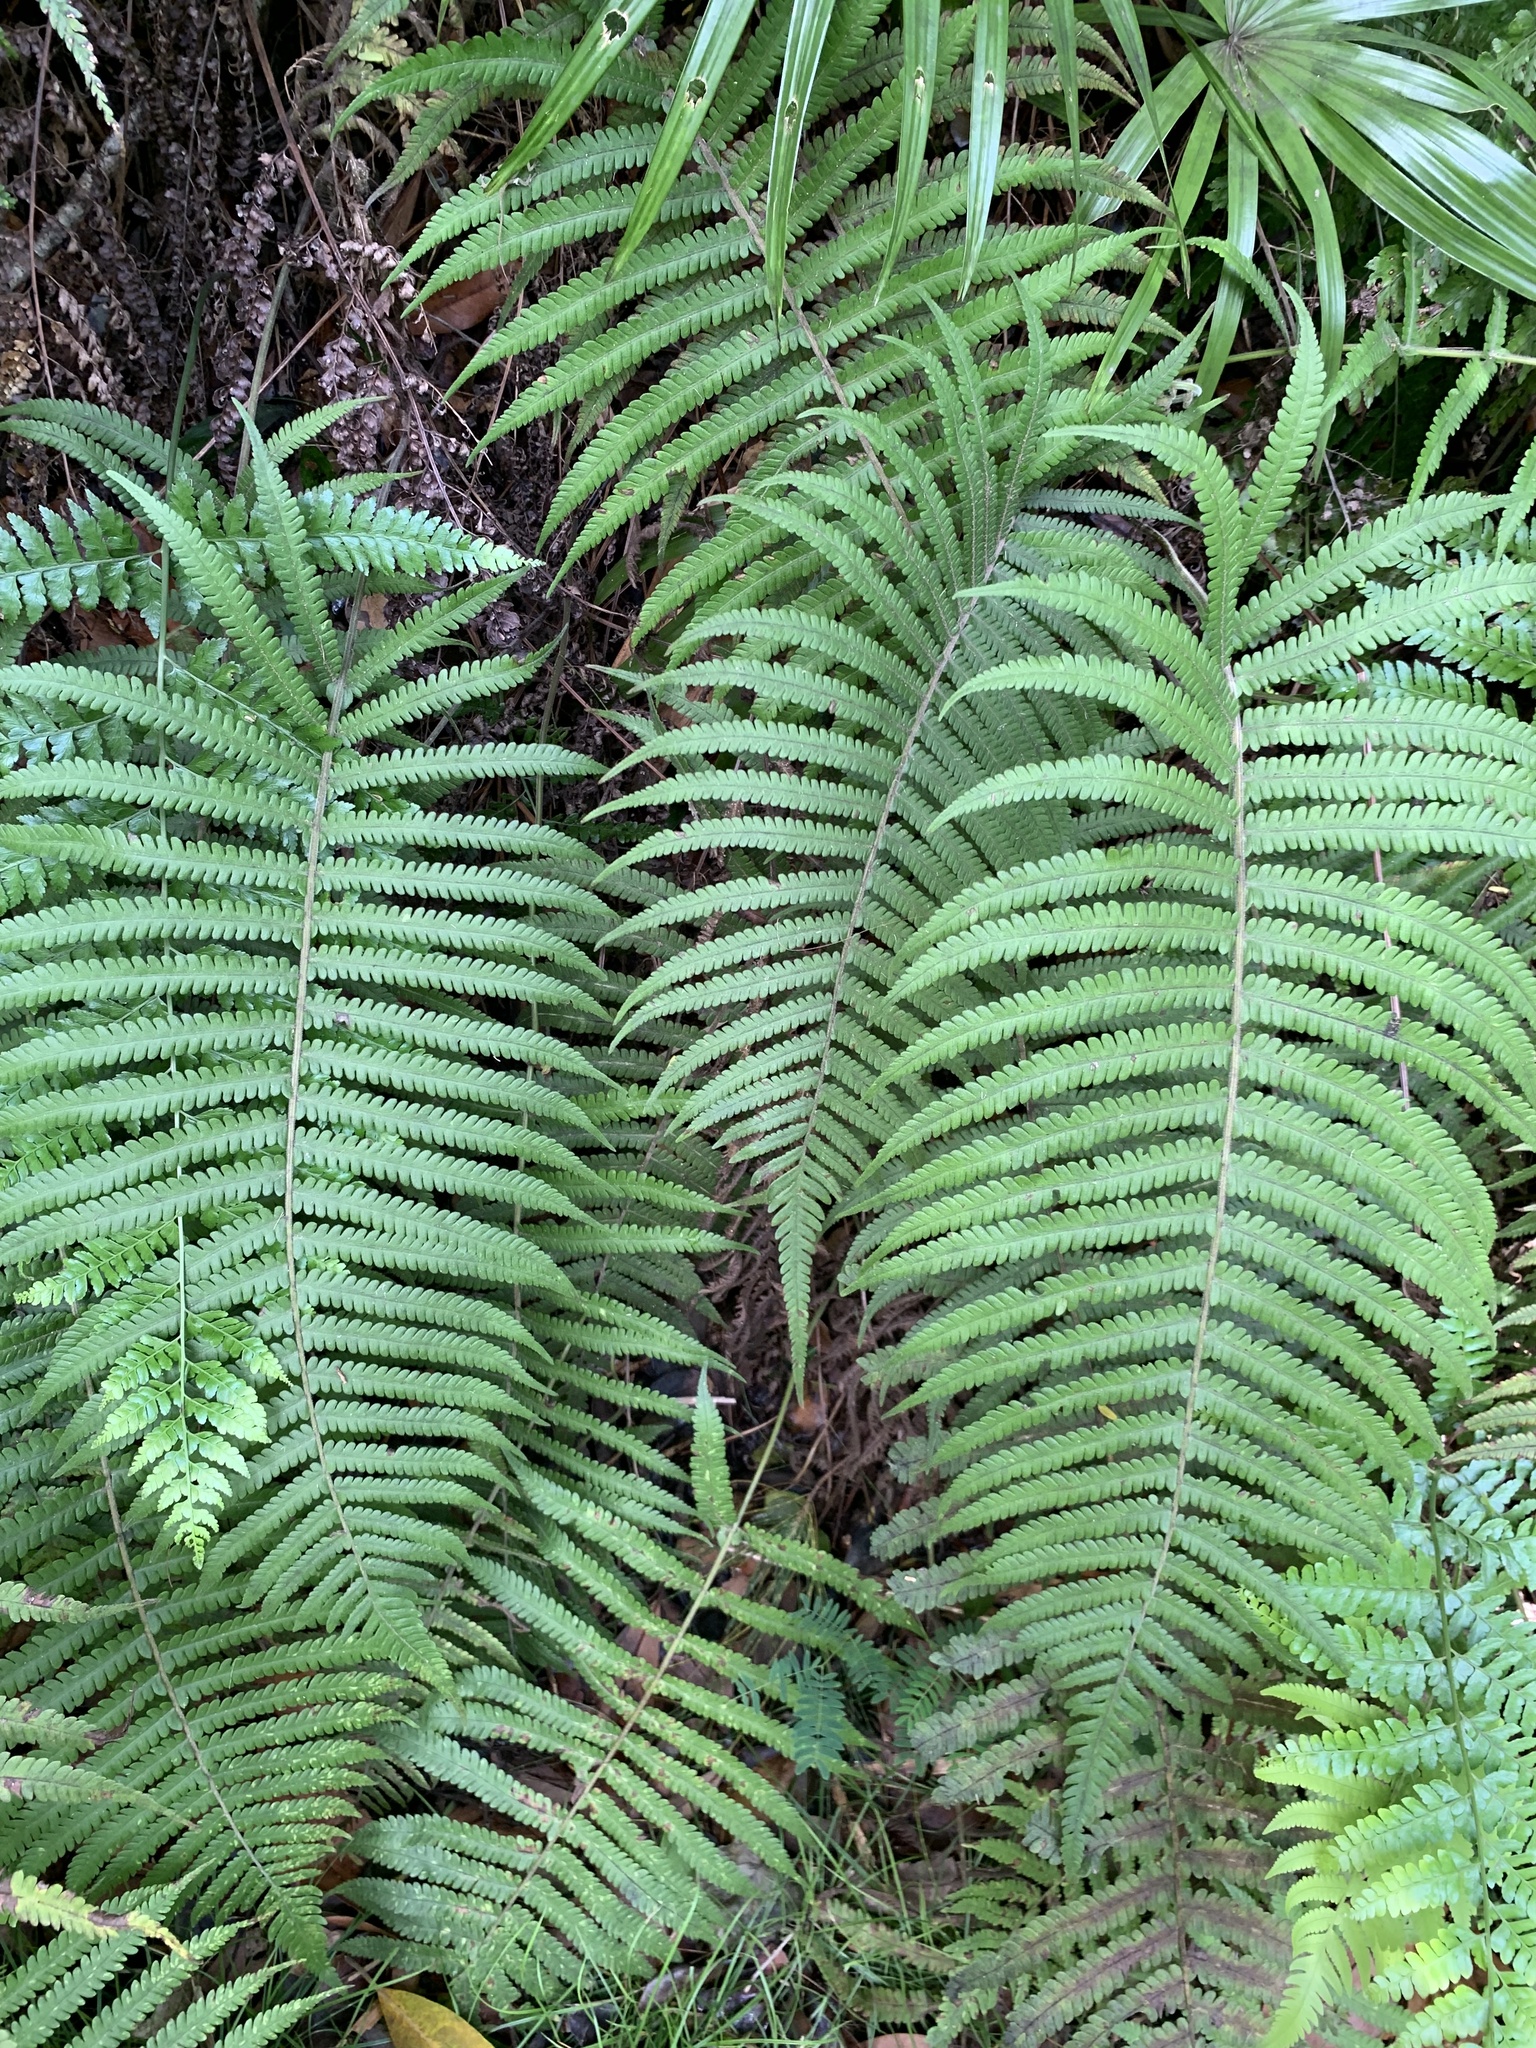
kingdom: Plantae
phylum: Tracheophyta
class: Polypodiopsida
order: Polypodiales
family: Thelypteridaceae
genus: Christella
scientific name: Christella parasitica
